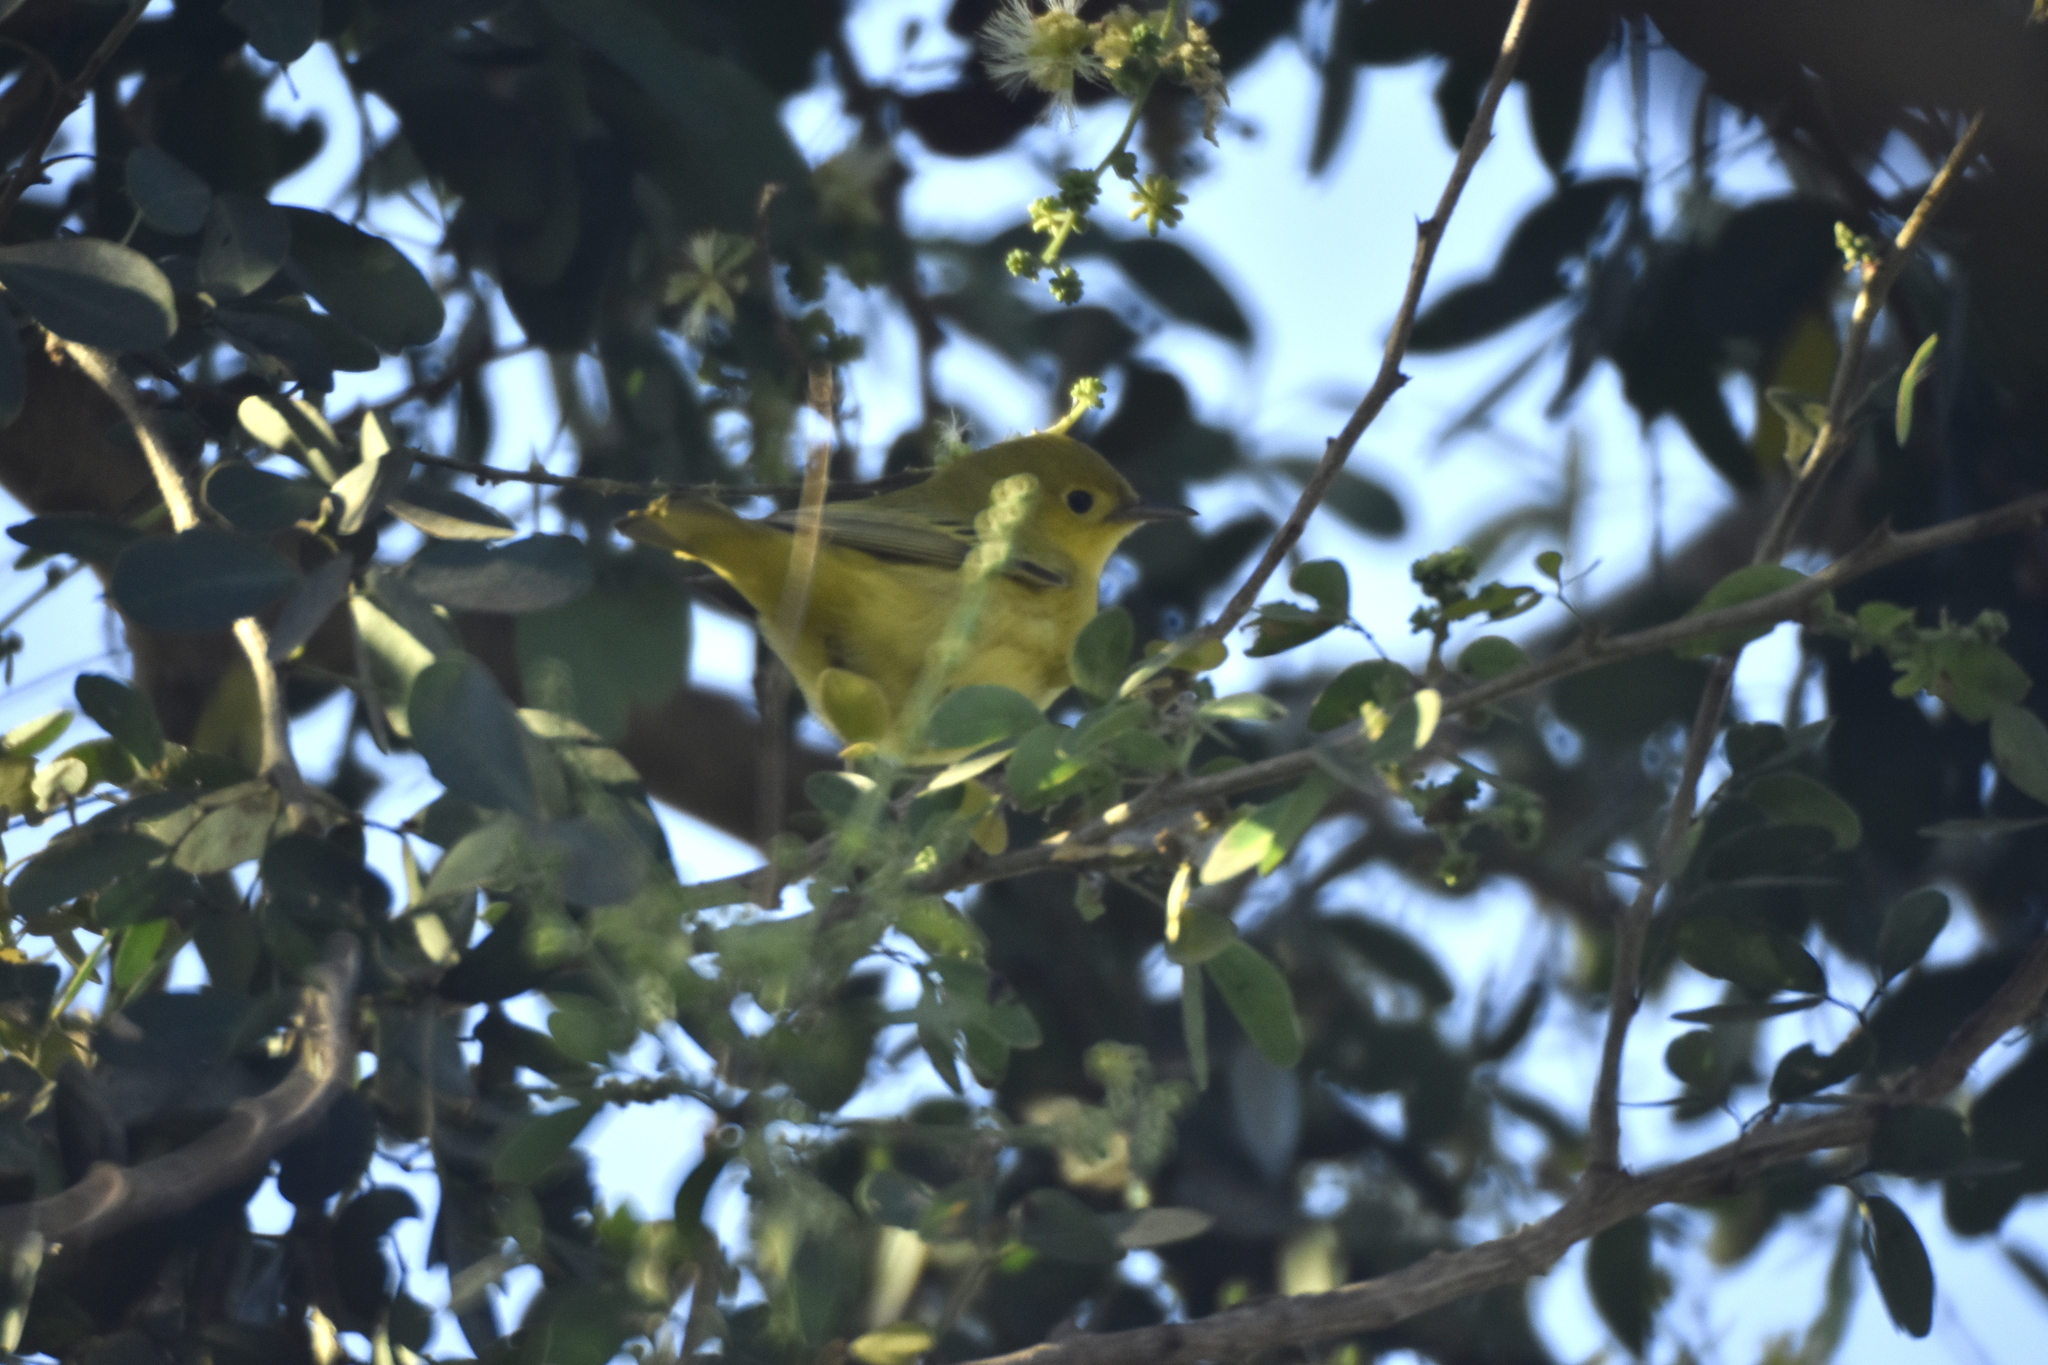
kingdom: Animalia
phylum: Chordata
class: Aves
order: Passeriformes
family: Parulidae
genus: Setophaga
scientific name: Setophaga petechia
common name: Yellow warbler
